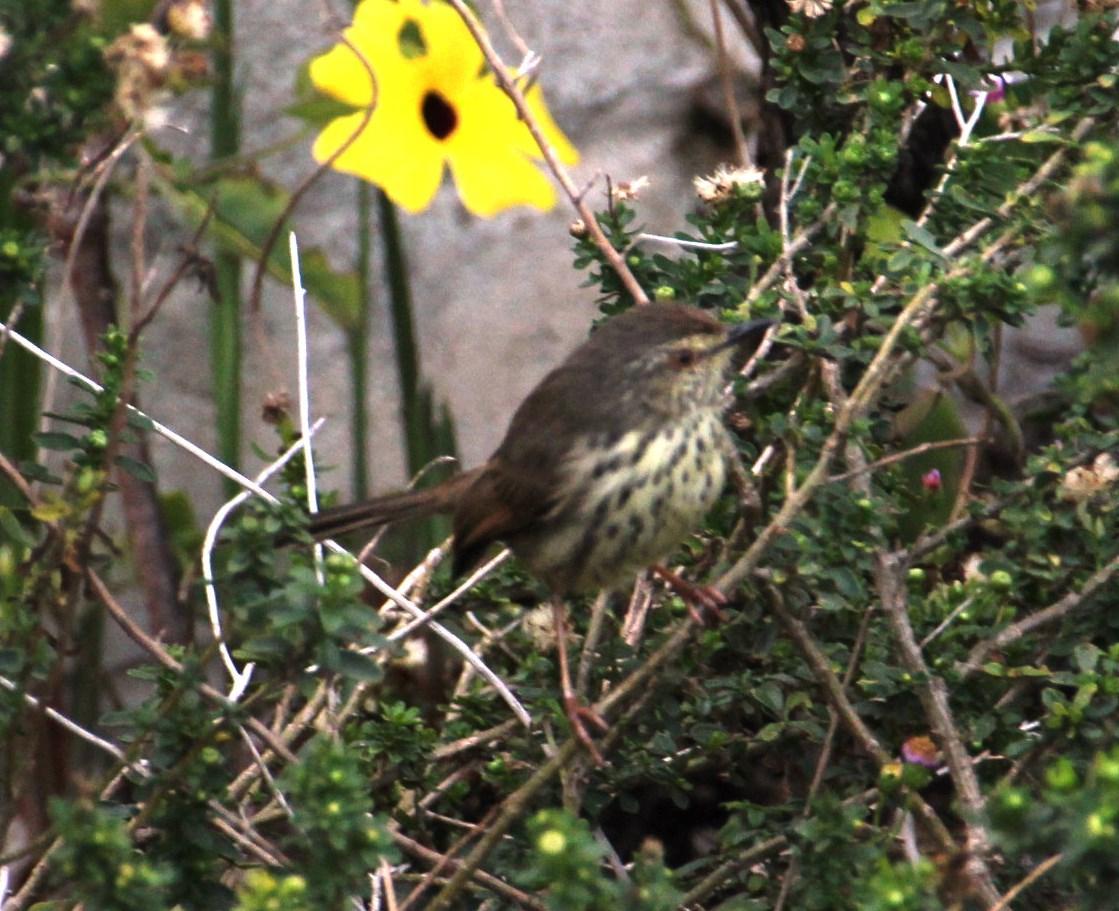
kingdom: Animalia
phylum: Chordata
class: Aves
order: Passeriformes
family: Cisticolidae
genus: Prinia
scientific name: Prinia maculosa
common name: Karoo prinia
